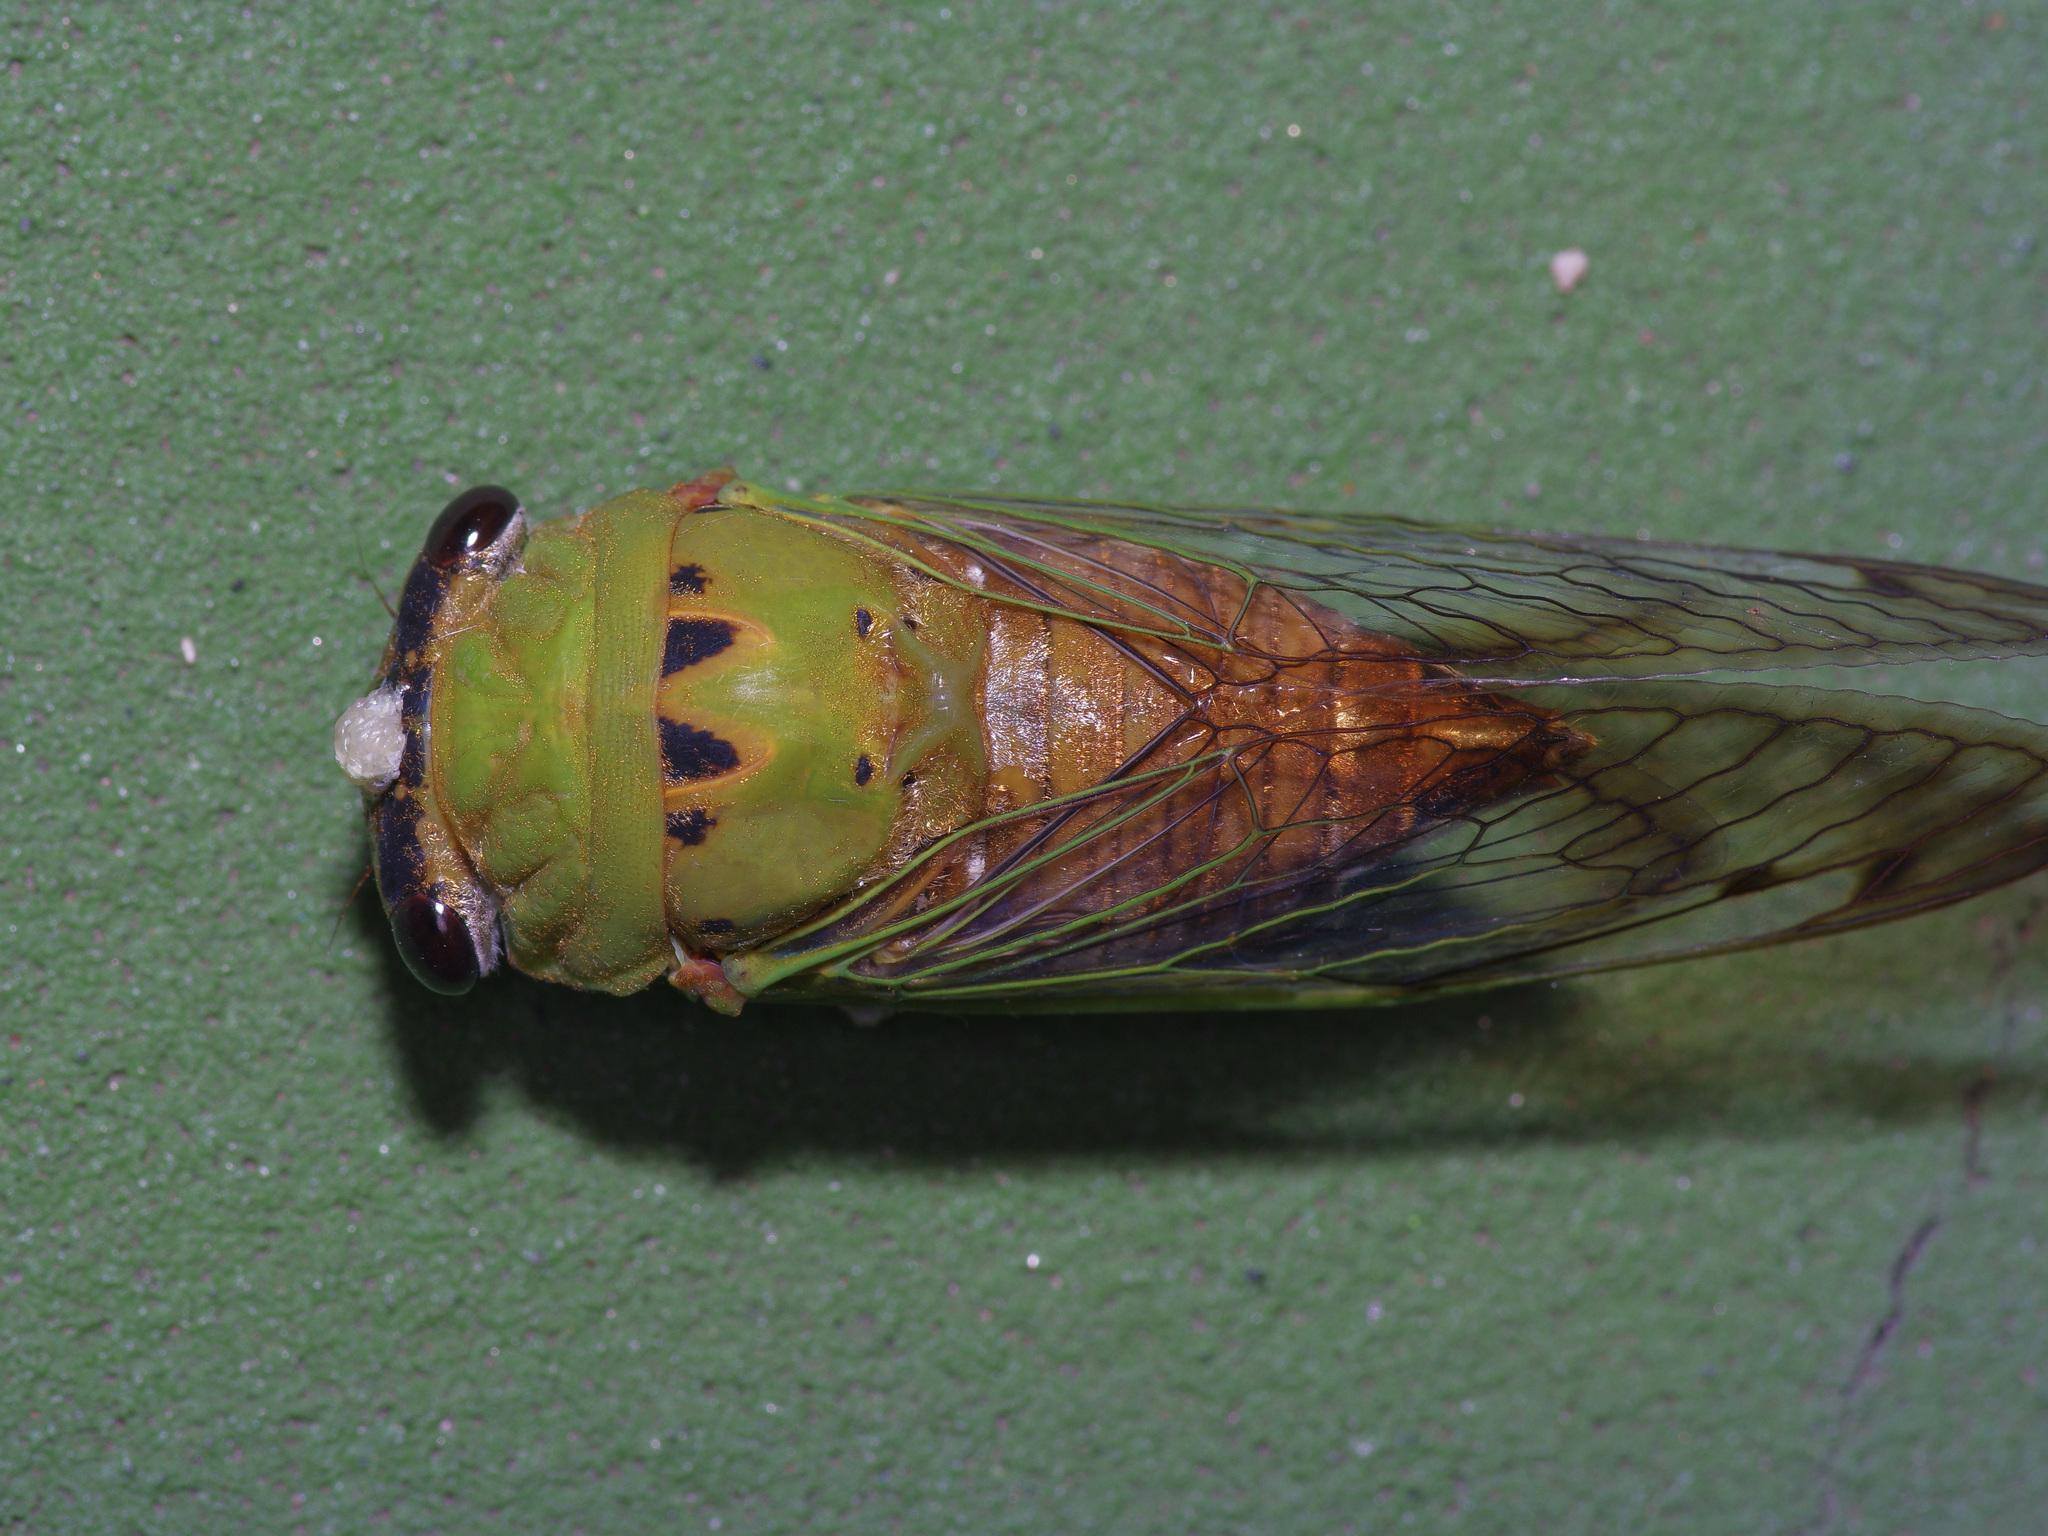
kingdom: Animalia
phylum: Arthropoda
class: Insecta
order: Hemiptera
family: Cicadidae
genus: Neotibicen
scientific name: Neotibicen superbus
